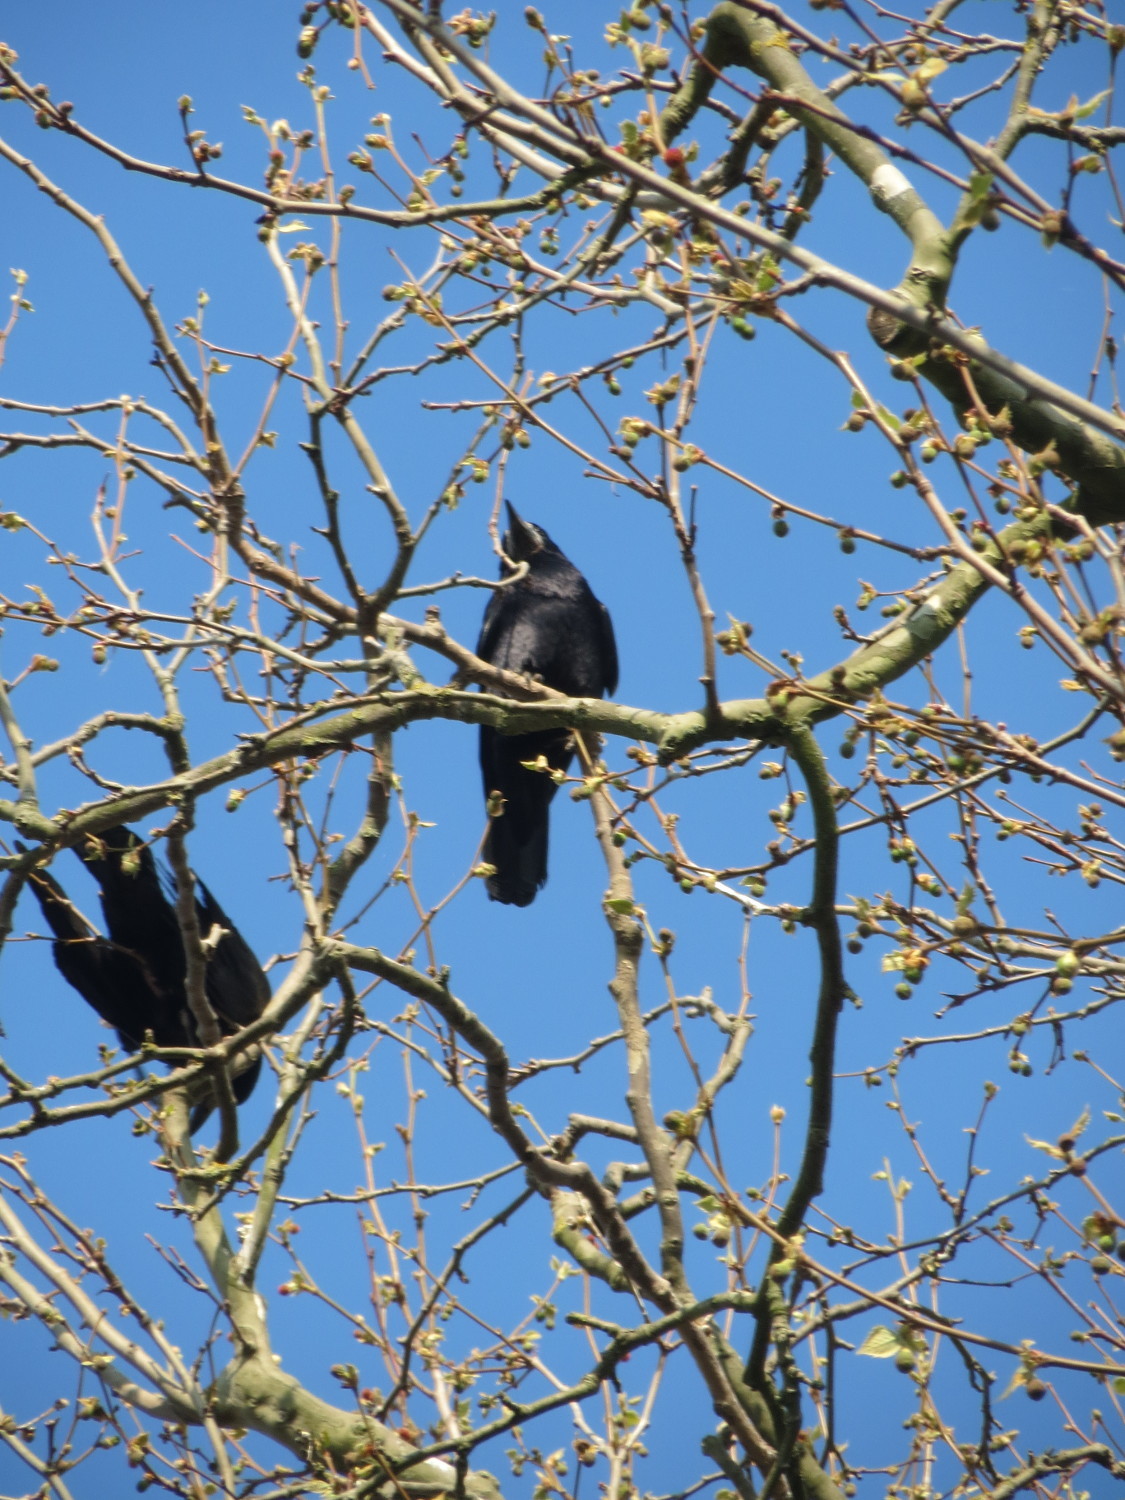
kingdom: Animalia
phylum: Chordata
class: Aves
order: Passeriformes
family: Corvidae
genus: Corvus
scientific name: Corvus frugilegus
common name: Rook
